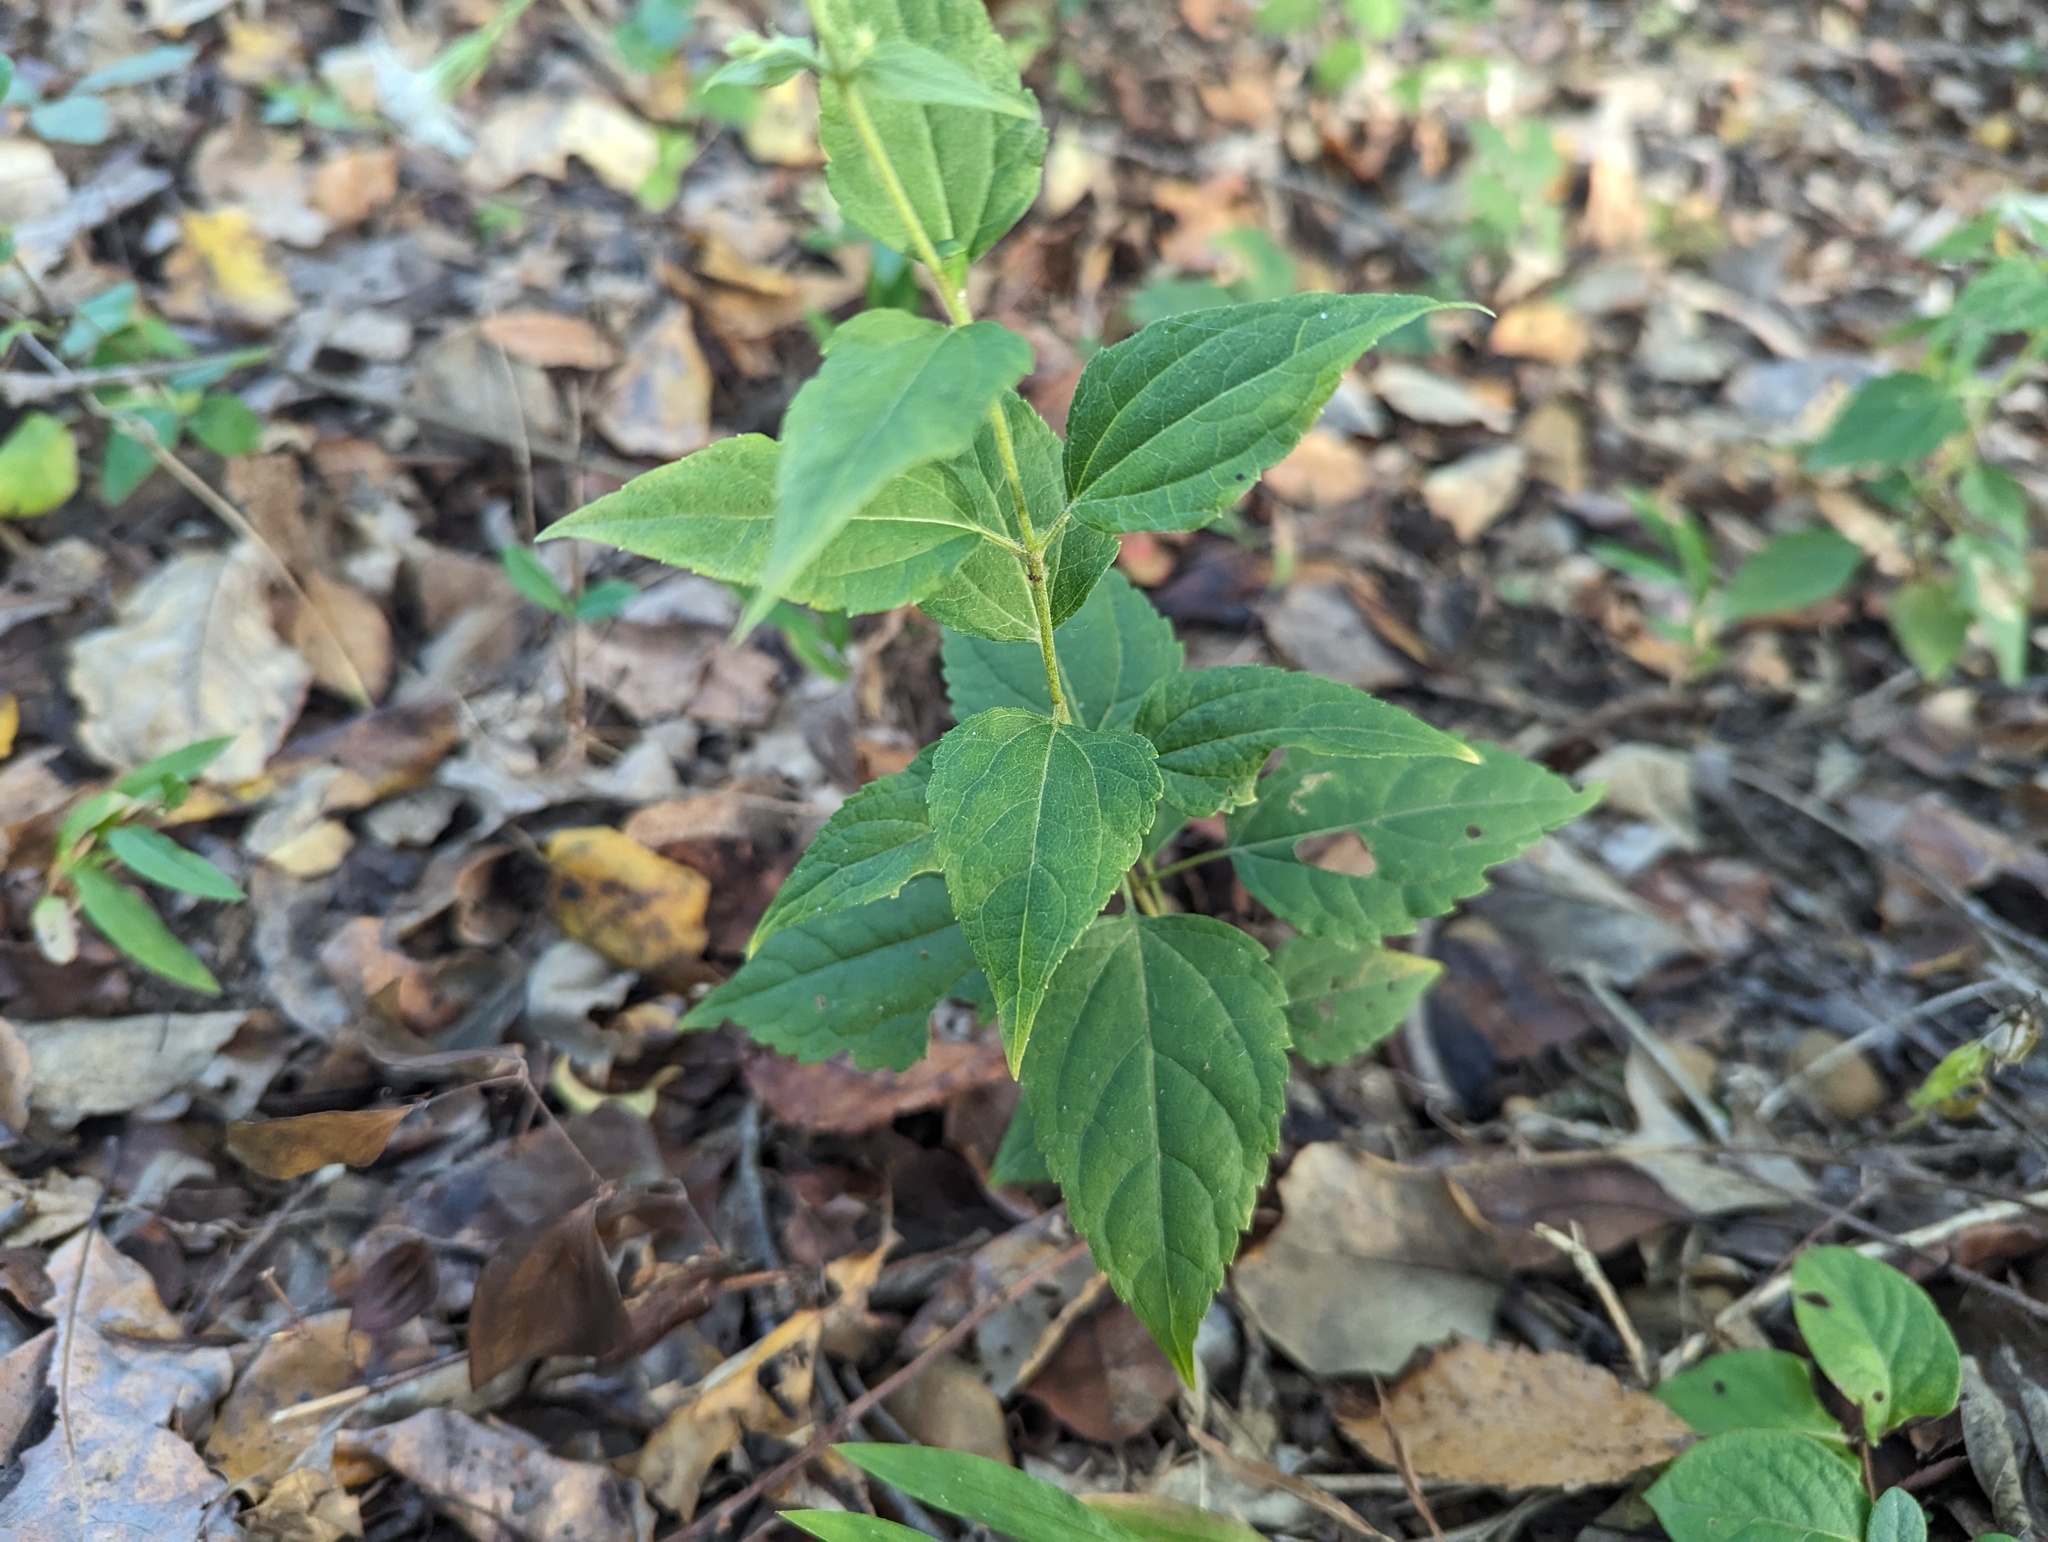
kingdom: Plantae
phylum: Tracheophyta
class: Magnoliopsida
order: Asterales
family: Asteraceae
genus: Ageratina
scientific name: Ageratina altissima
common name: White snakeroot
